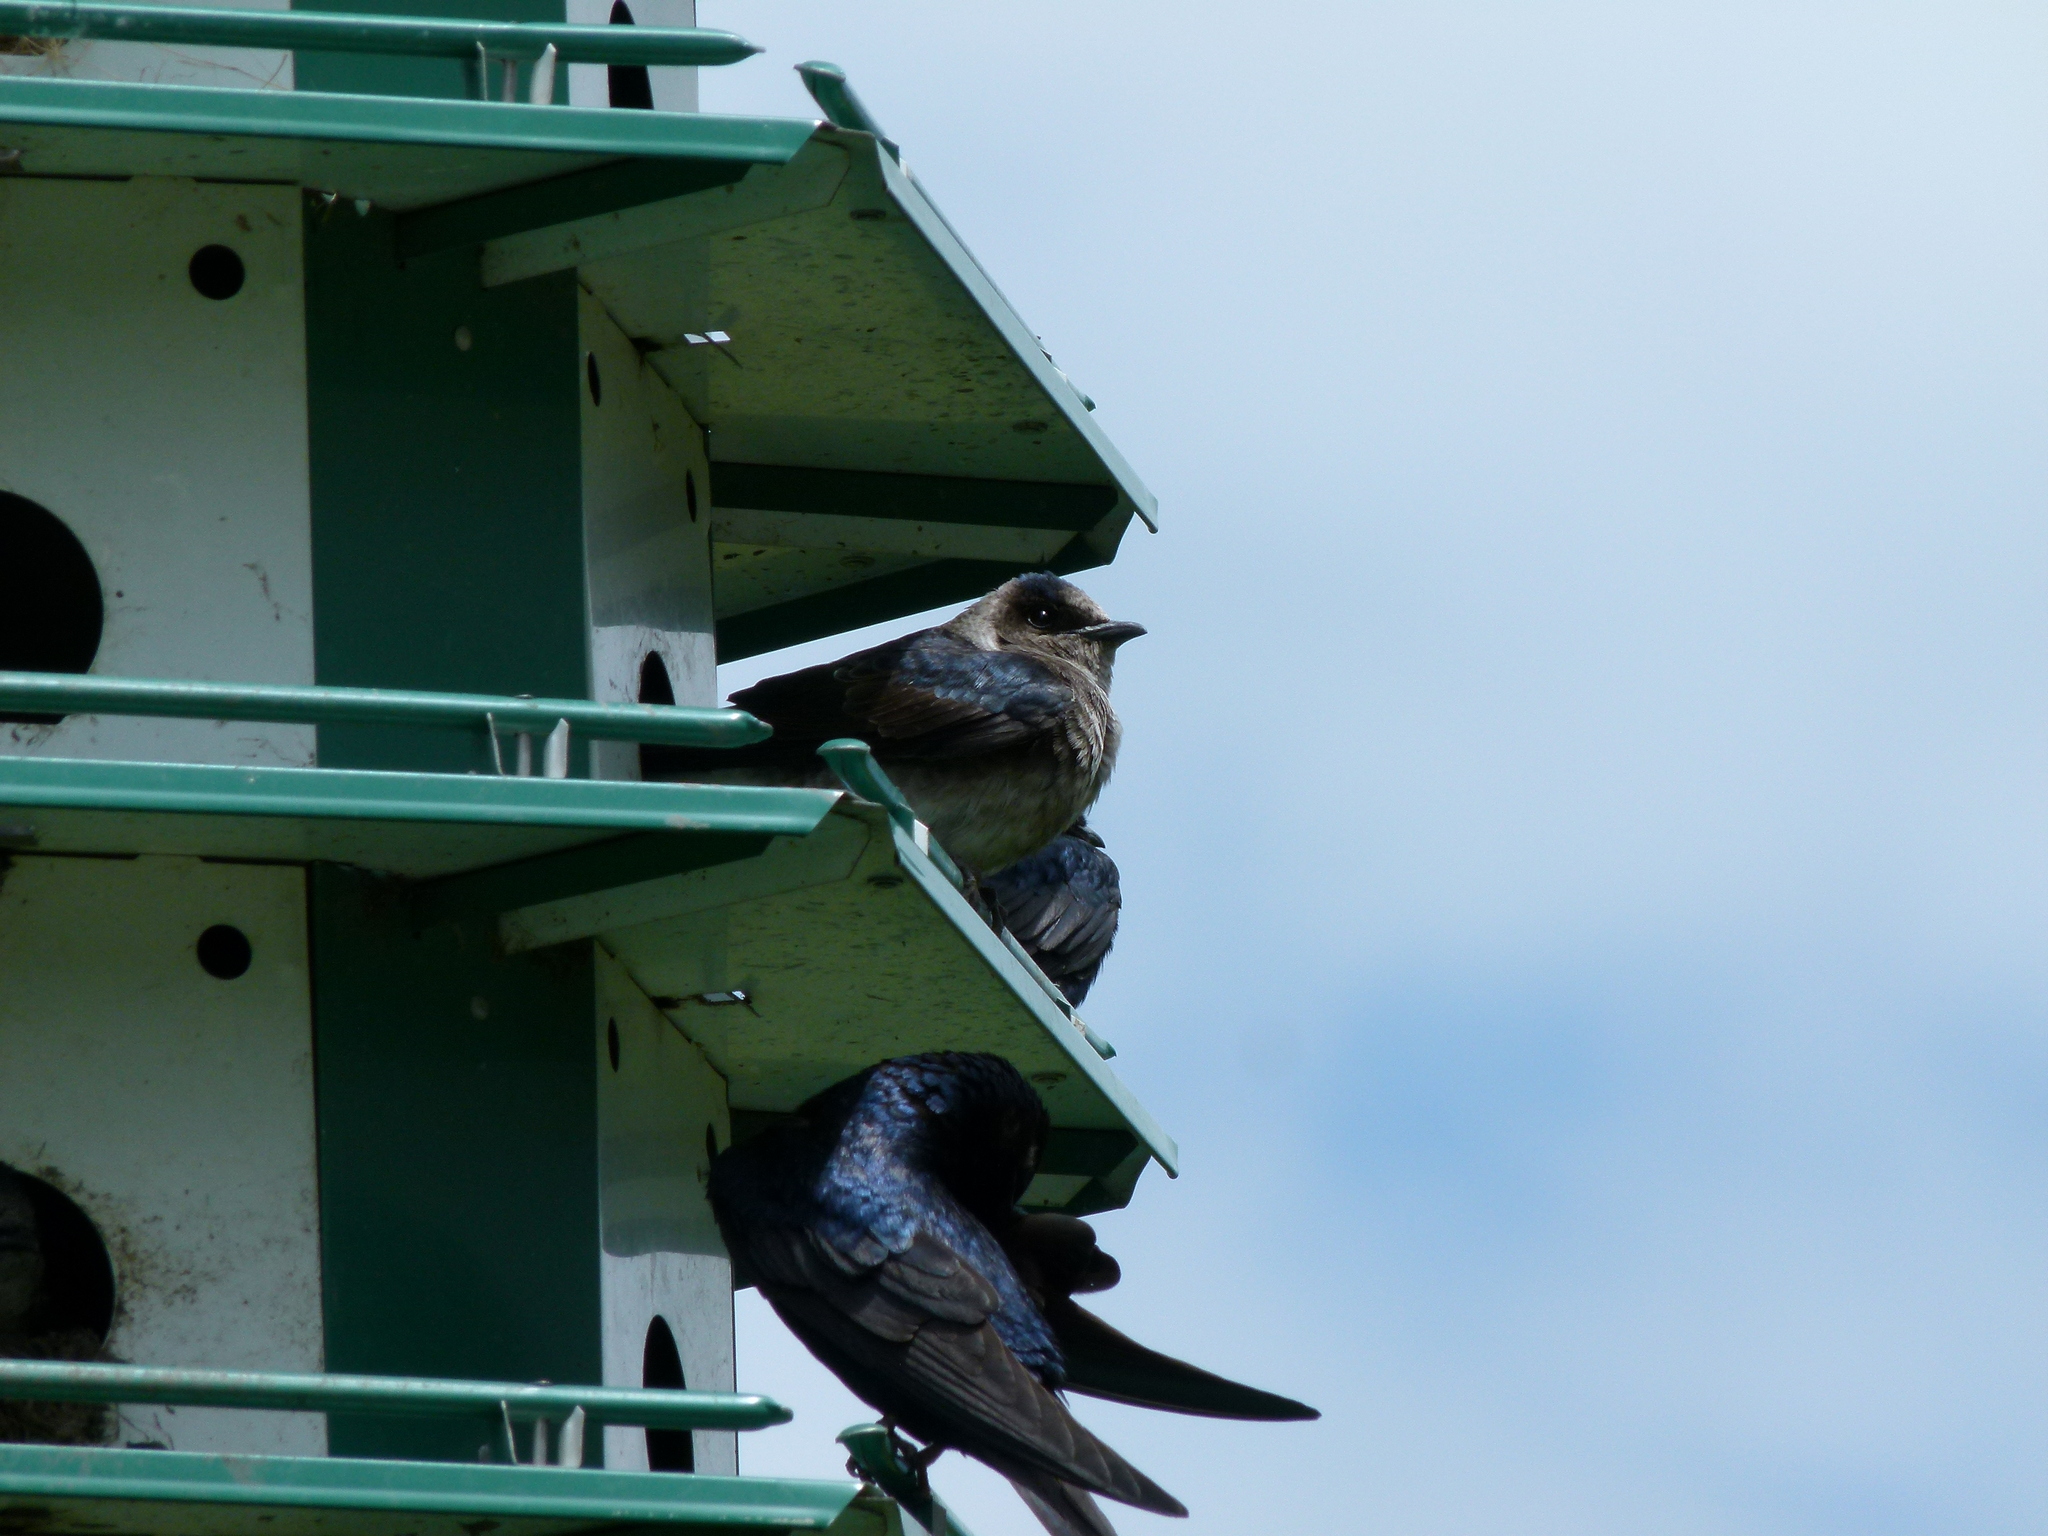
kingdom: Animalia
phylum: Chordata
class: Aves
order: Passeriformes
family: Hirundinidae
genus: Progne
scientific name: Progne subis
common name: Purple martin
